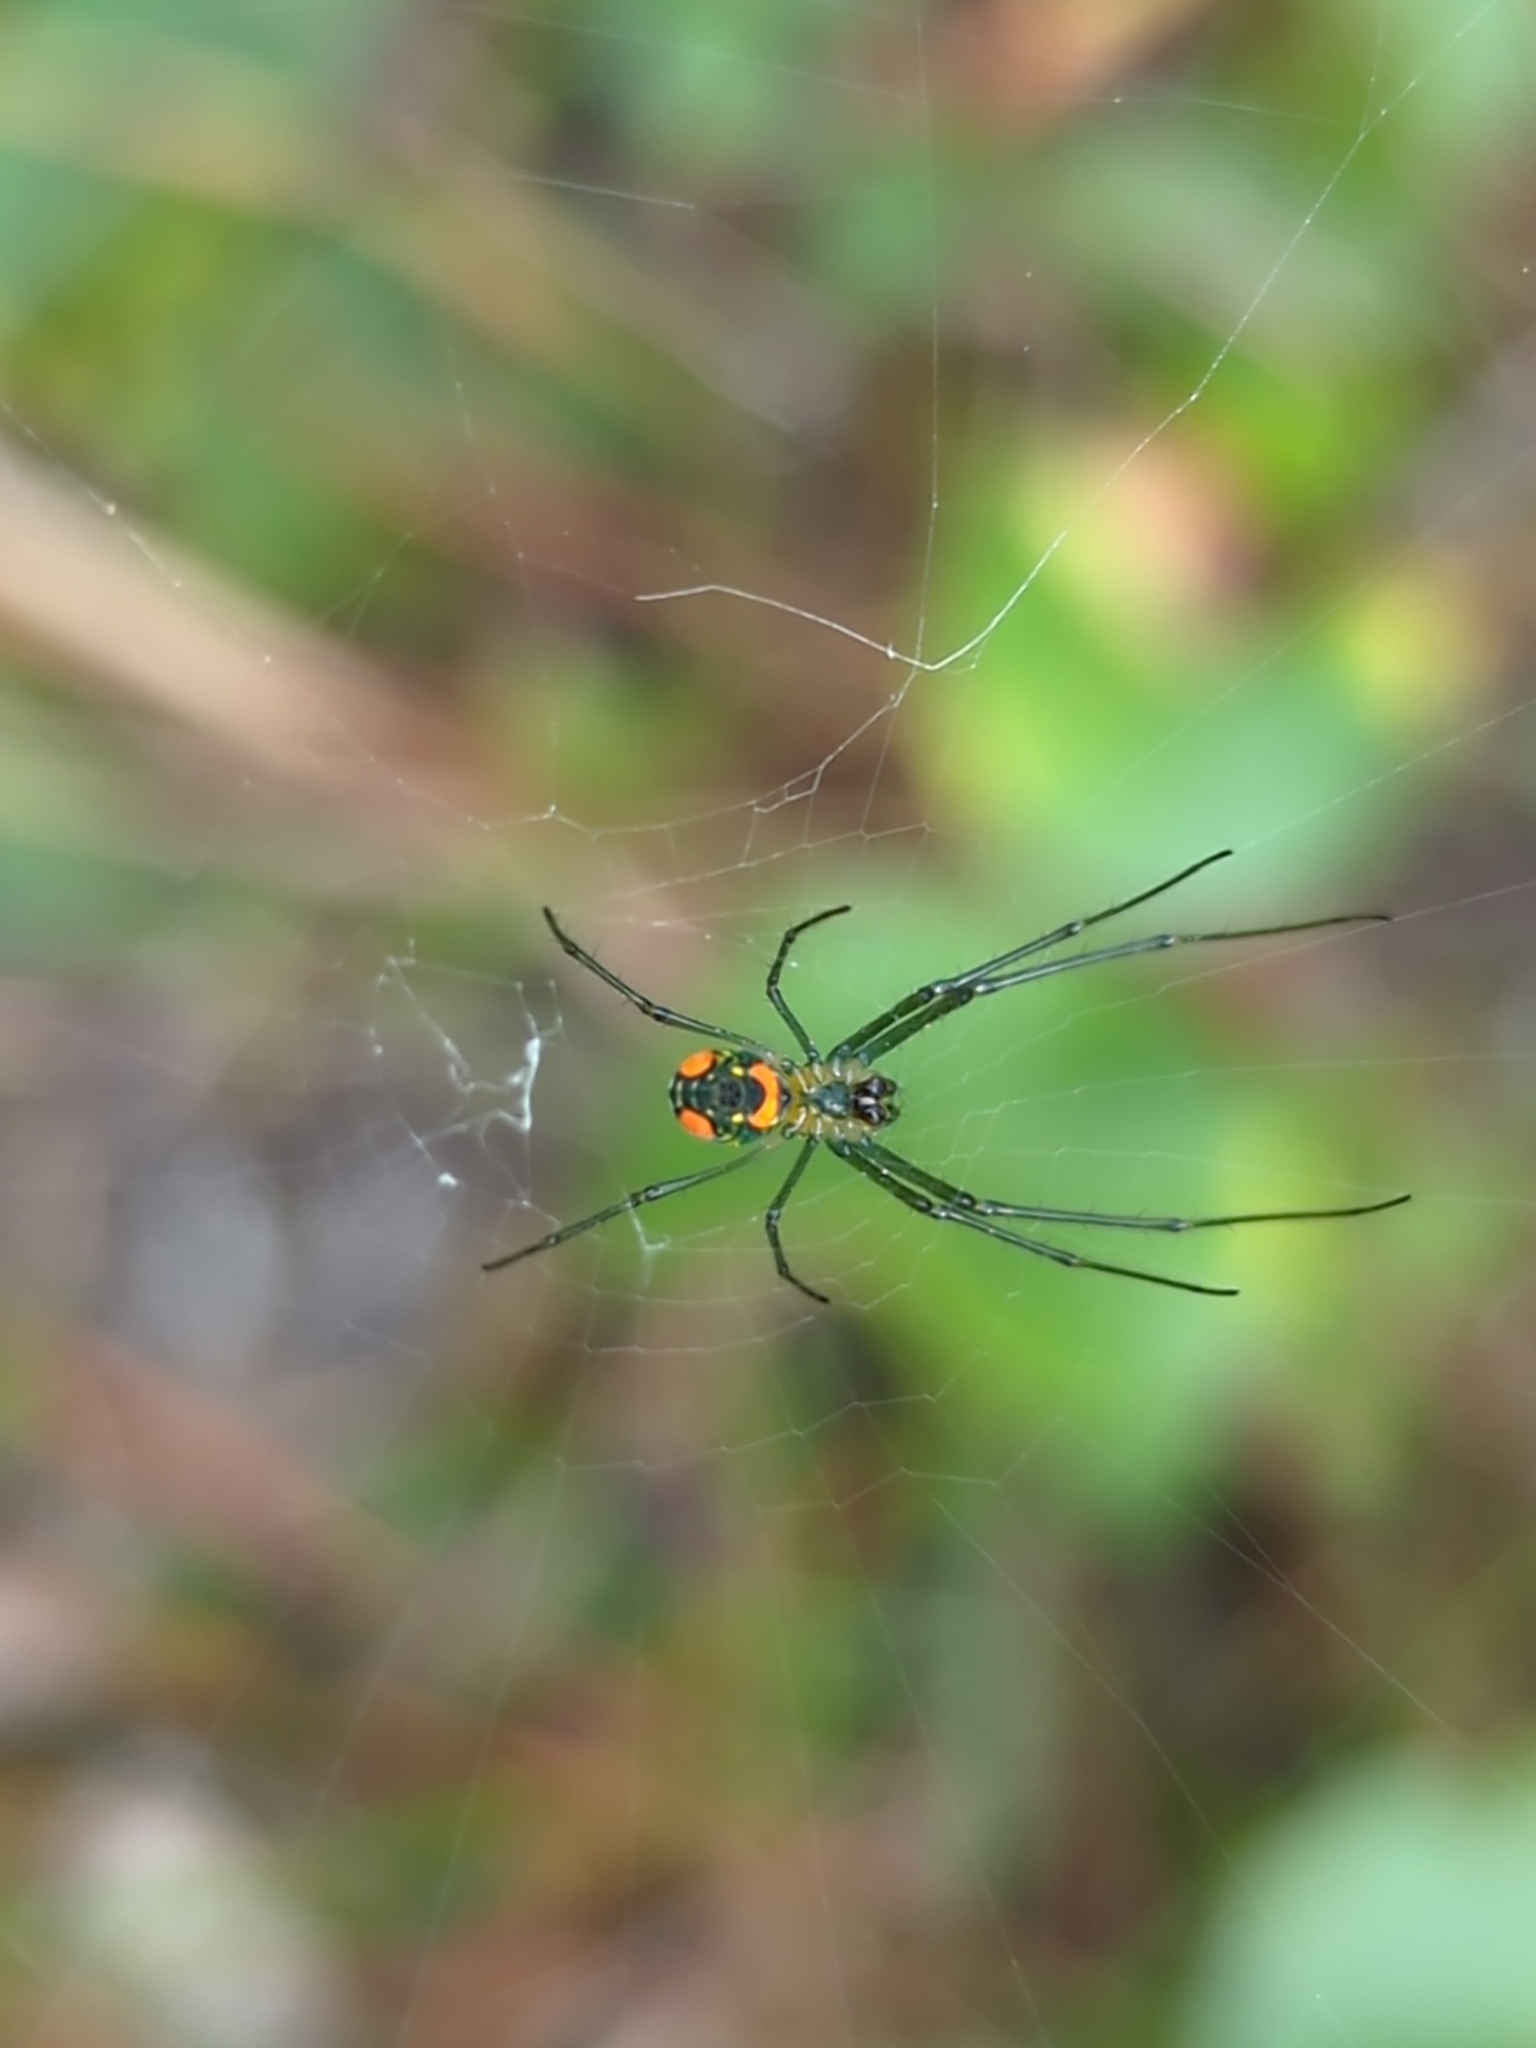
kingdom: Animalia
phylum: Arthropoda
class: Arachnida
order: Araneae
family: Tetragnathidae
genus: Leucauge
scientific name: Leucauge argyrobapta
